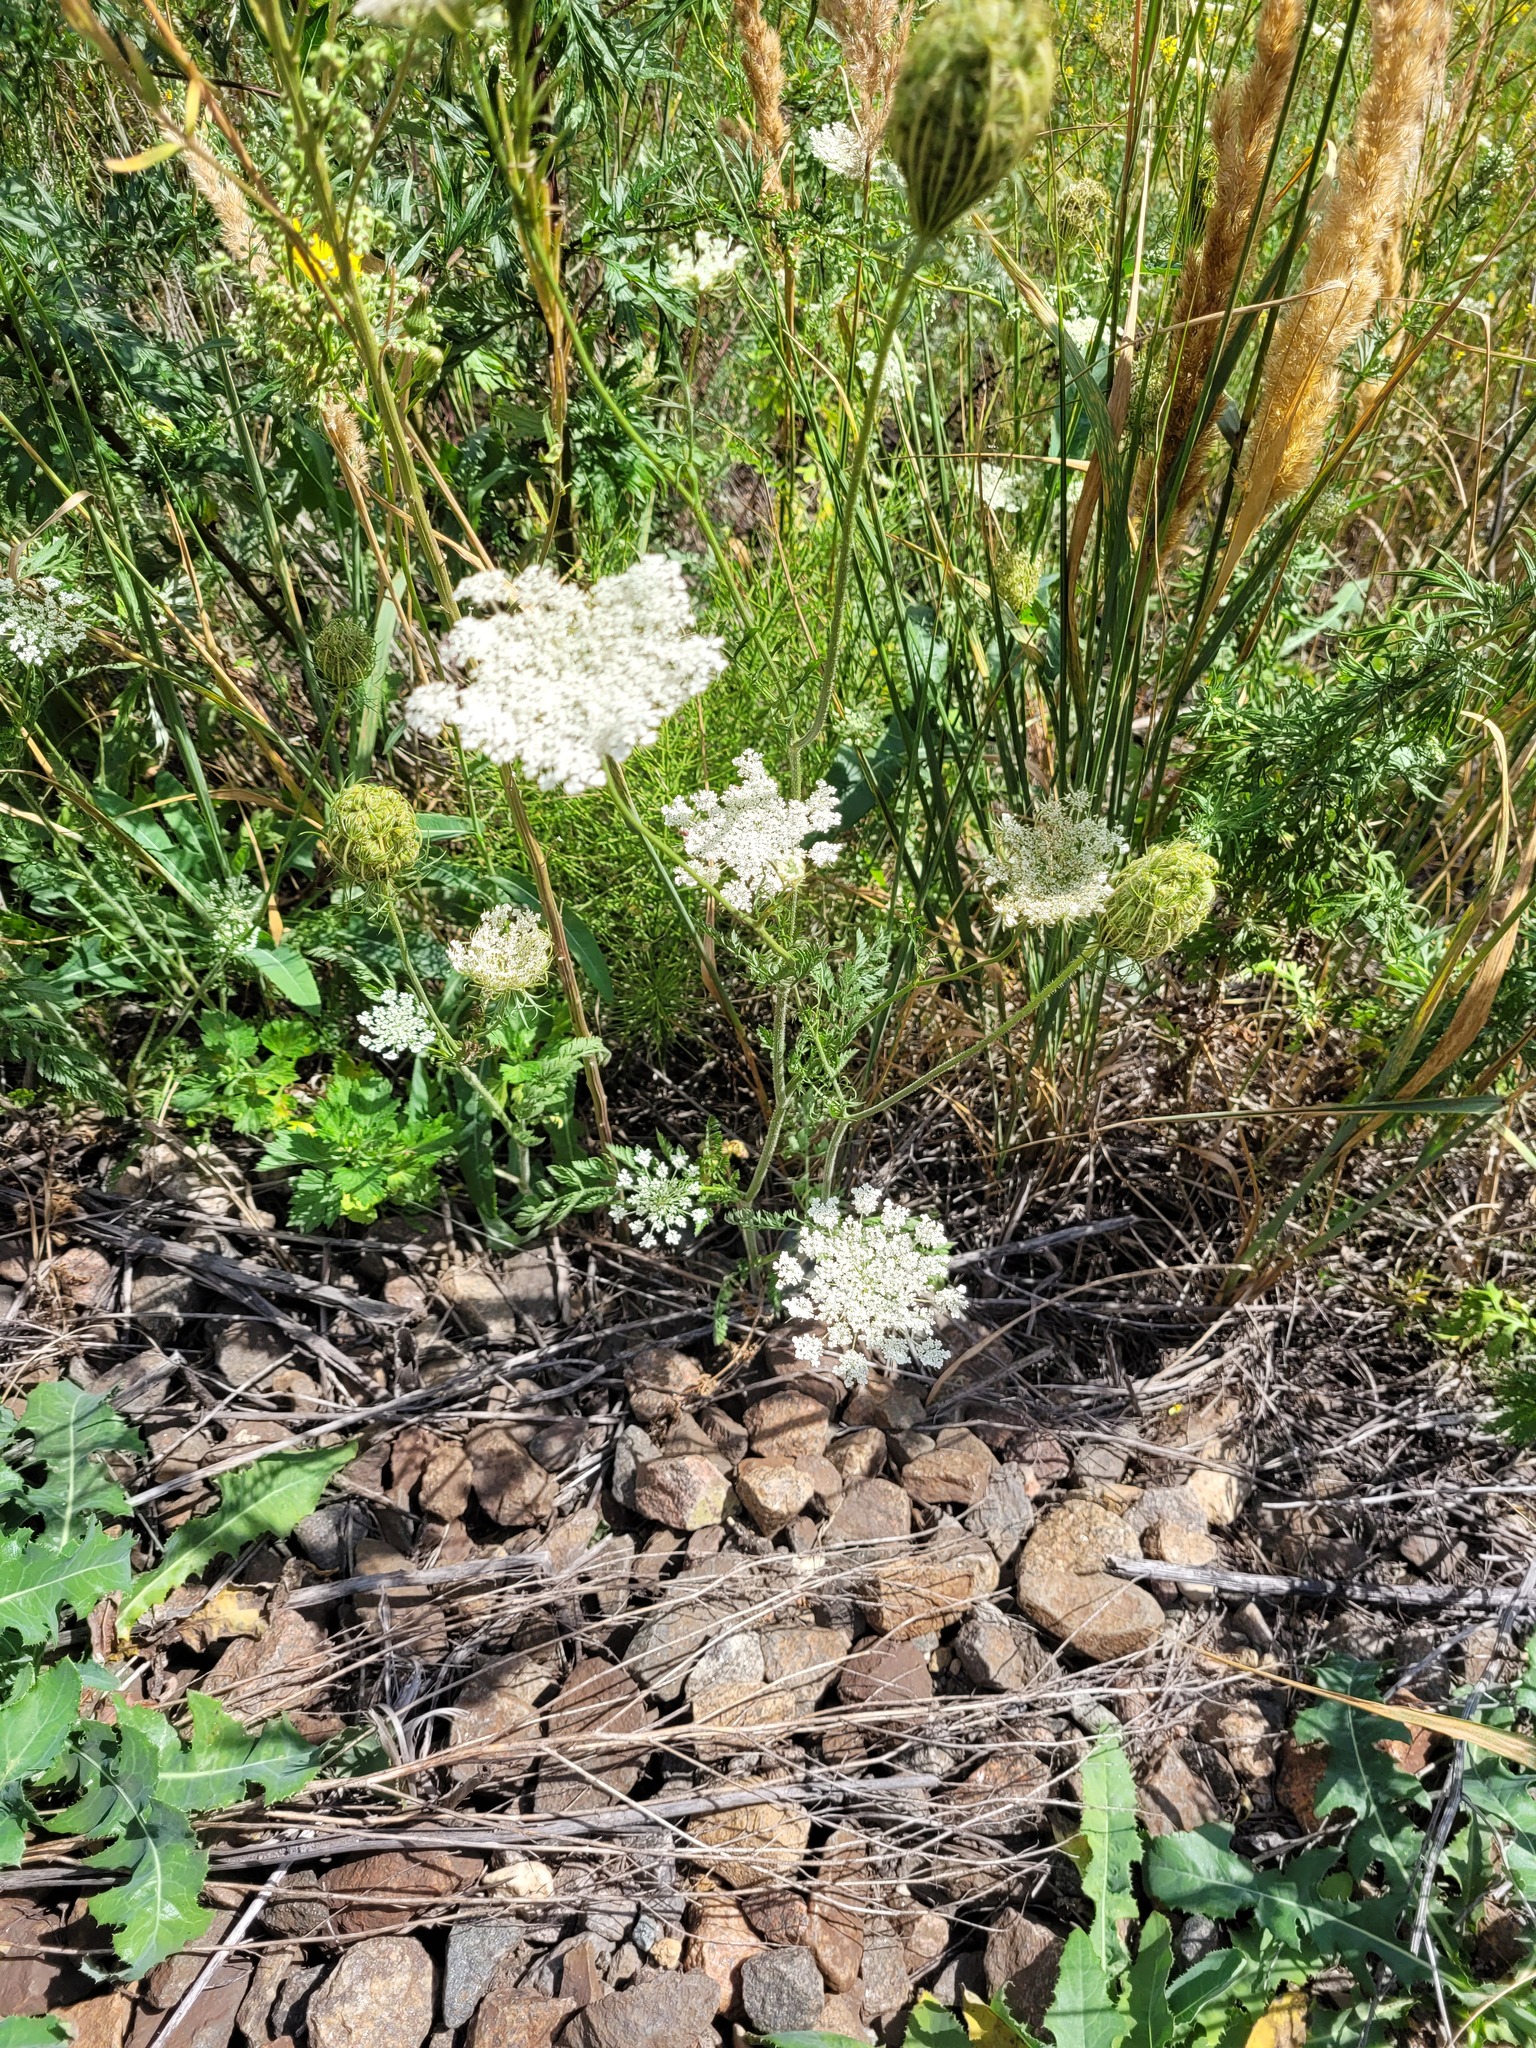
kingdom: Plantae
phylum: Tracheophyta
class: Magnoliopsida
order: Apiales
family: Apiaceae
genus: Daucus
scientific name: Daucus carota
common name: Wild carrot
